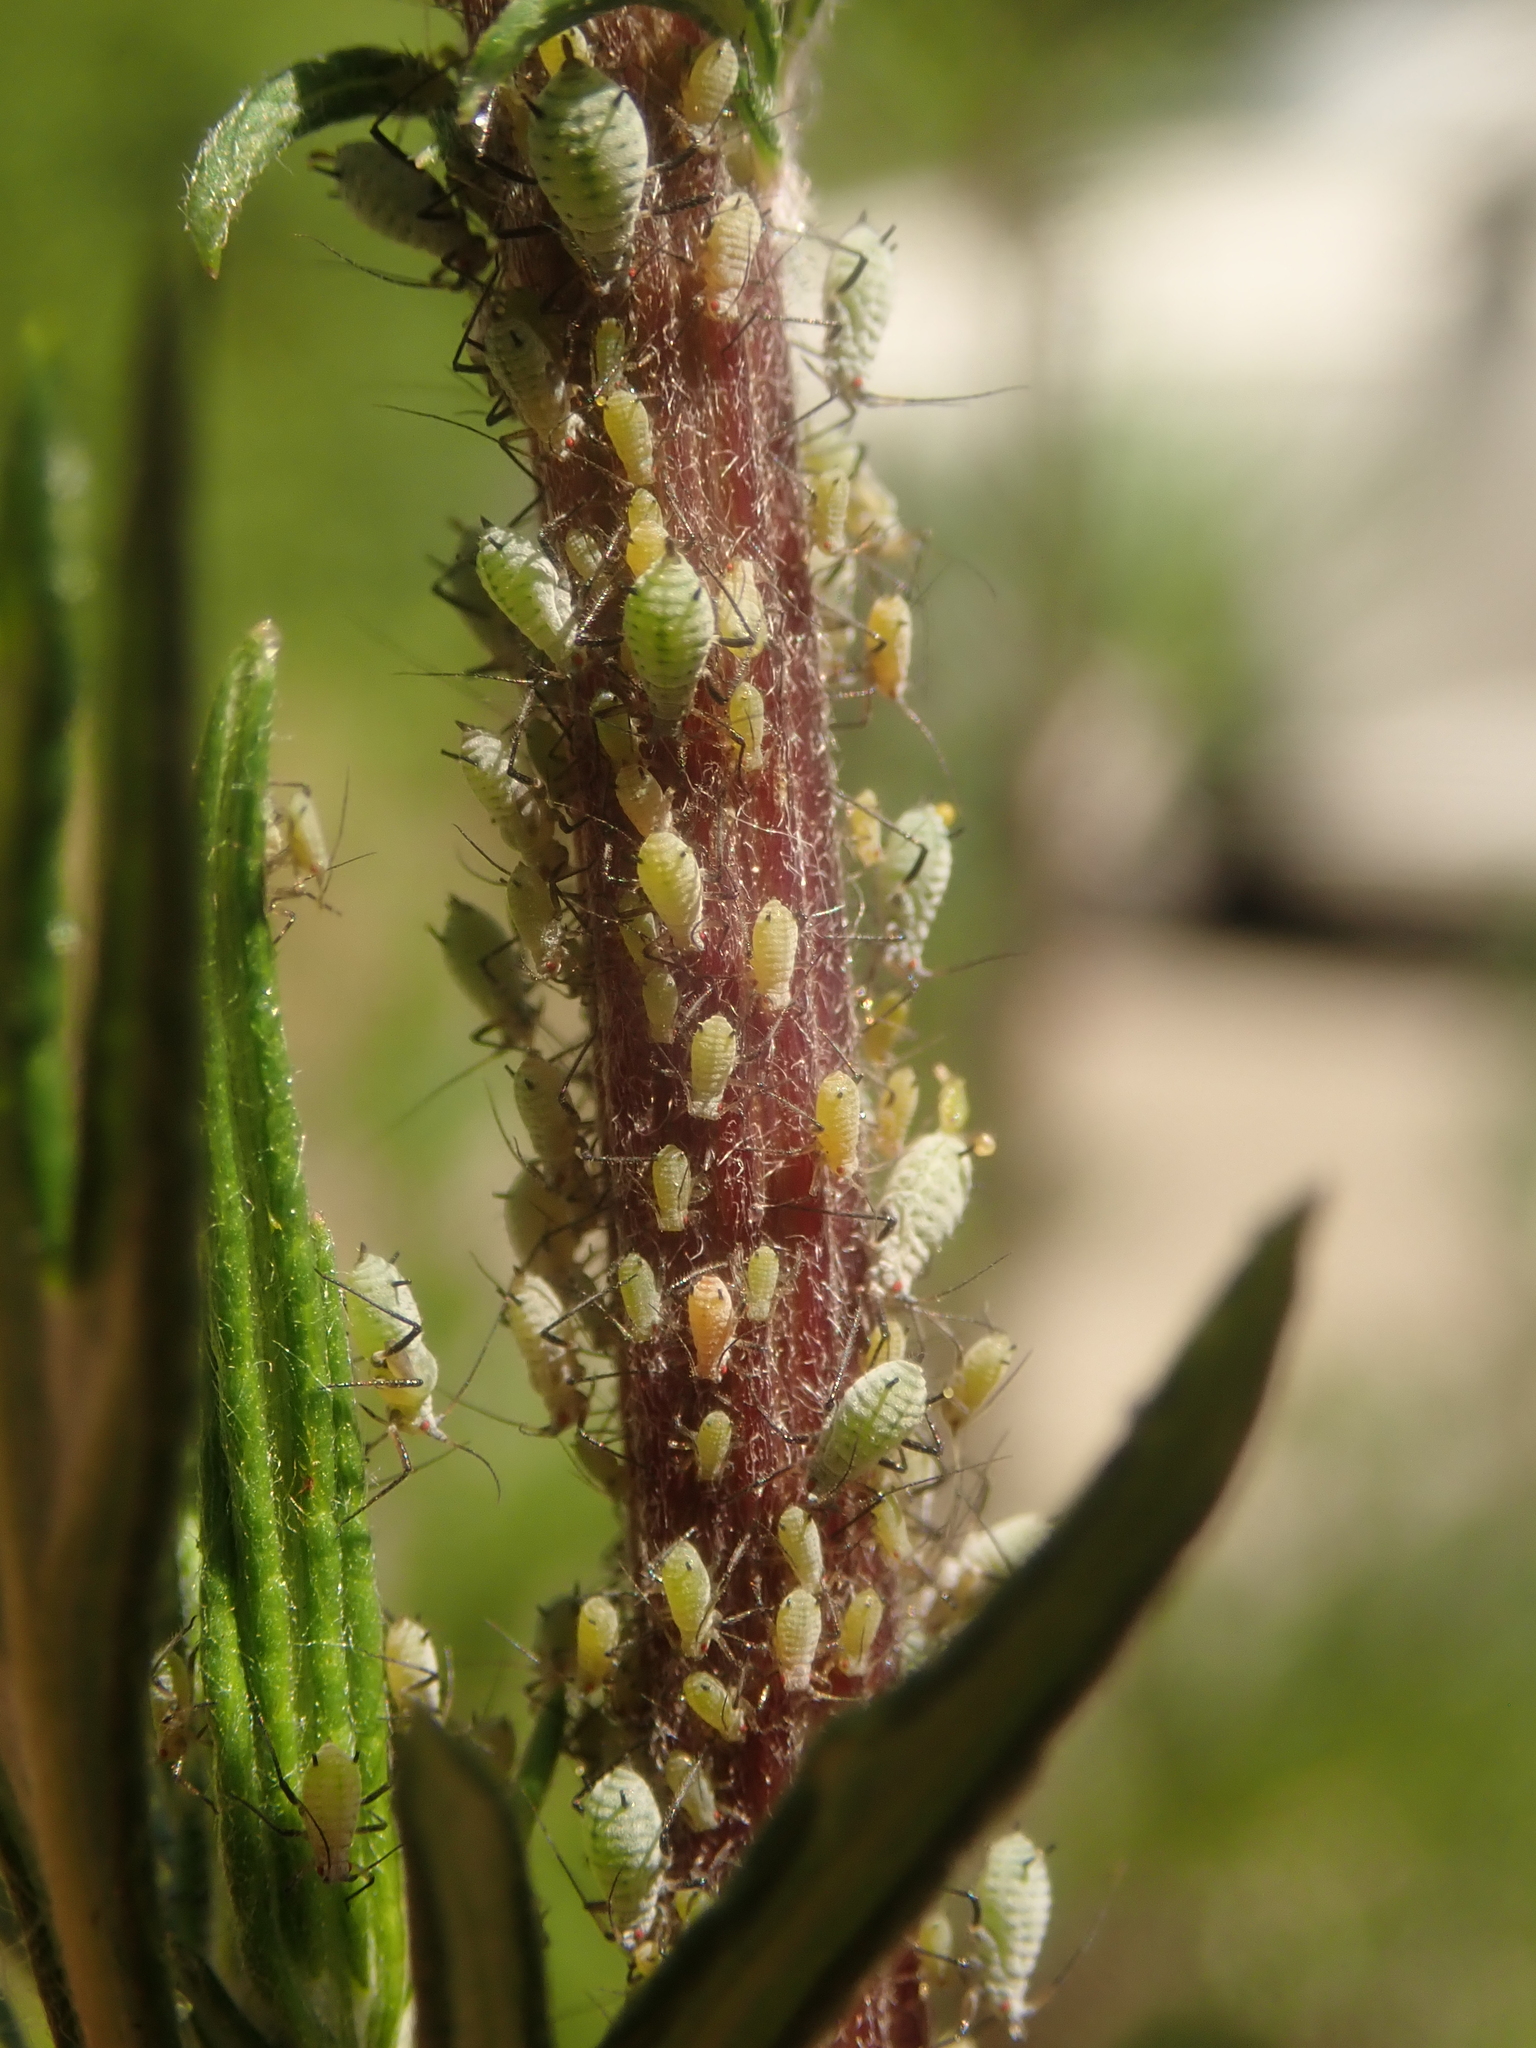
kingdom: Animalia
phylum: Arthropoda
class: Insecta
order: Hemiptera
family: Aphididae
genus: Macrosiphoniella
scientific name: Macrosiphoniella artemisiae
